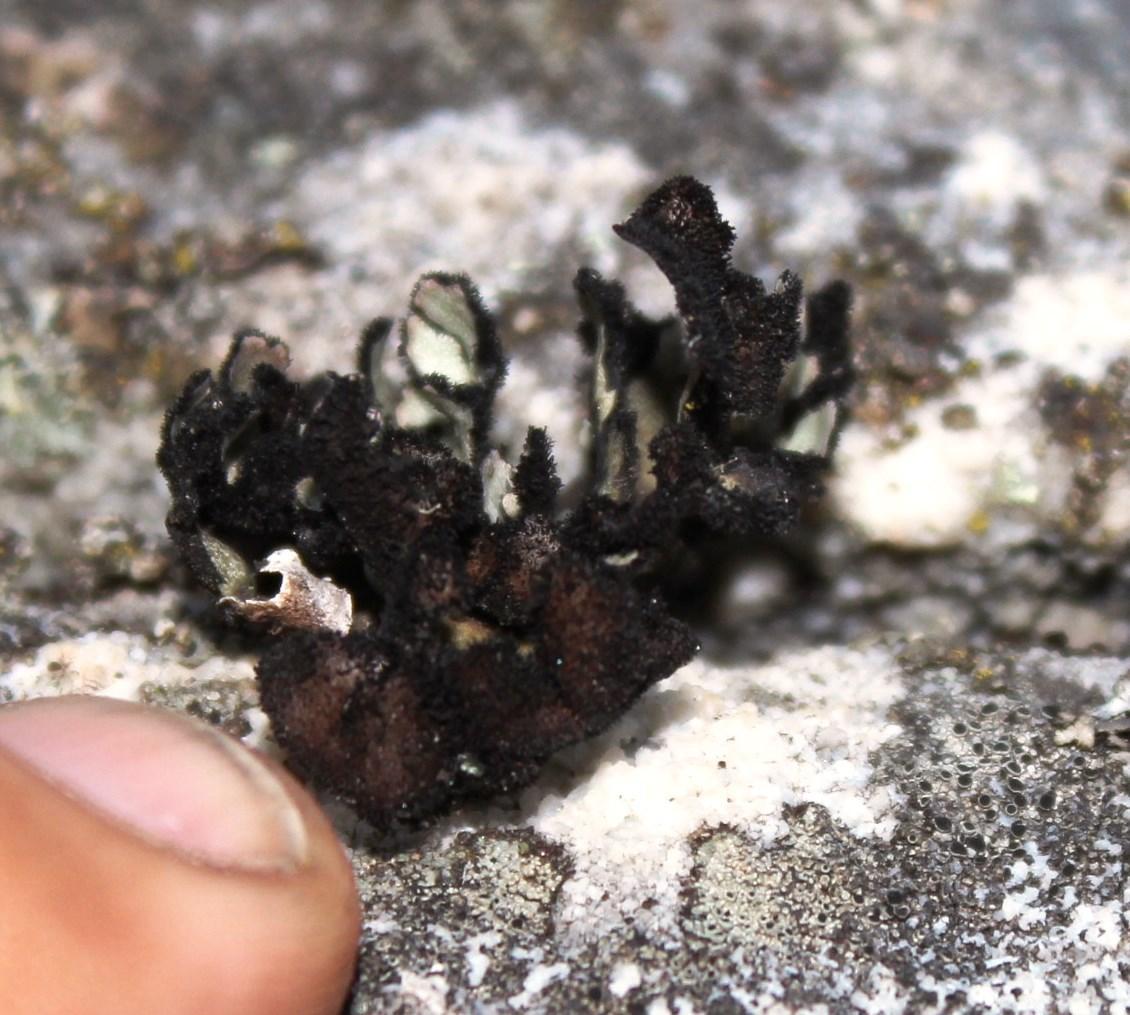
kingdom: Fungi
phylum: Ascomycota
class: Lecanoromycetes
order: Lecanorales
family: Parmeliaceae
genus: Xanthoparmelia
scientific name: Xanthoparmelia hottentotta
